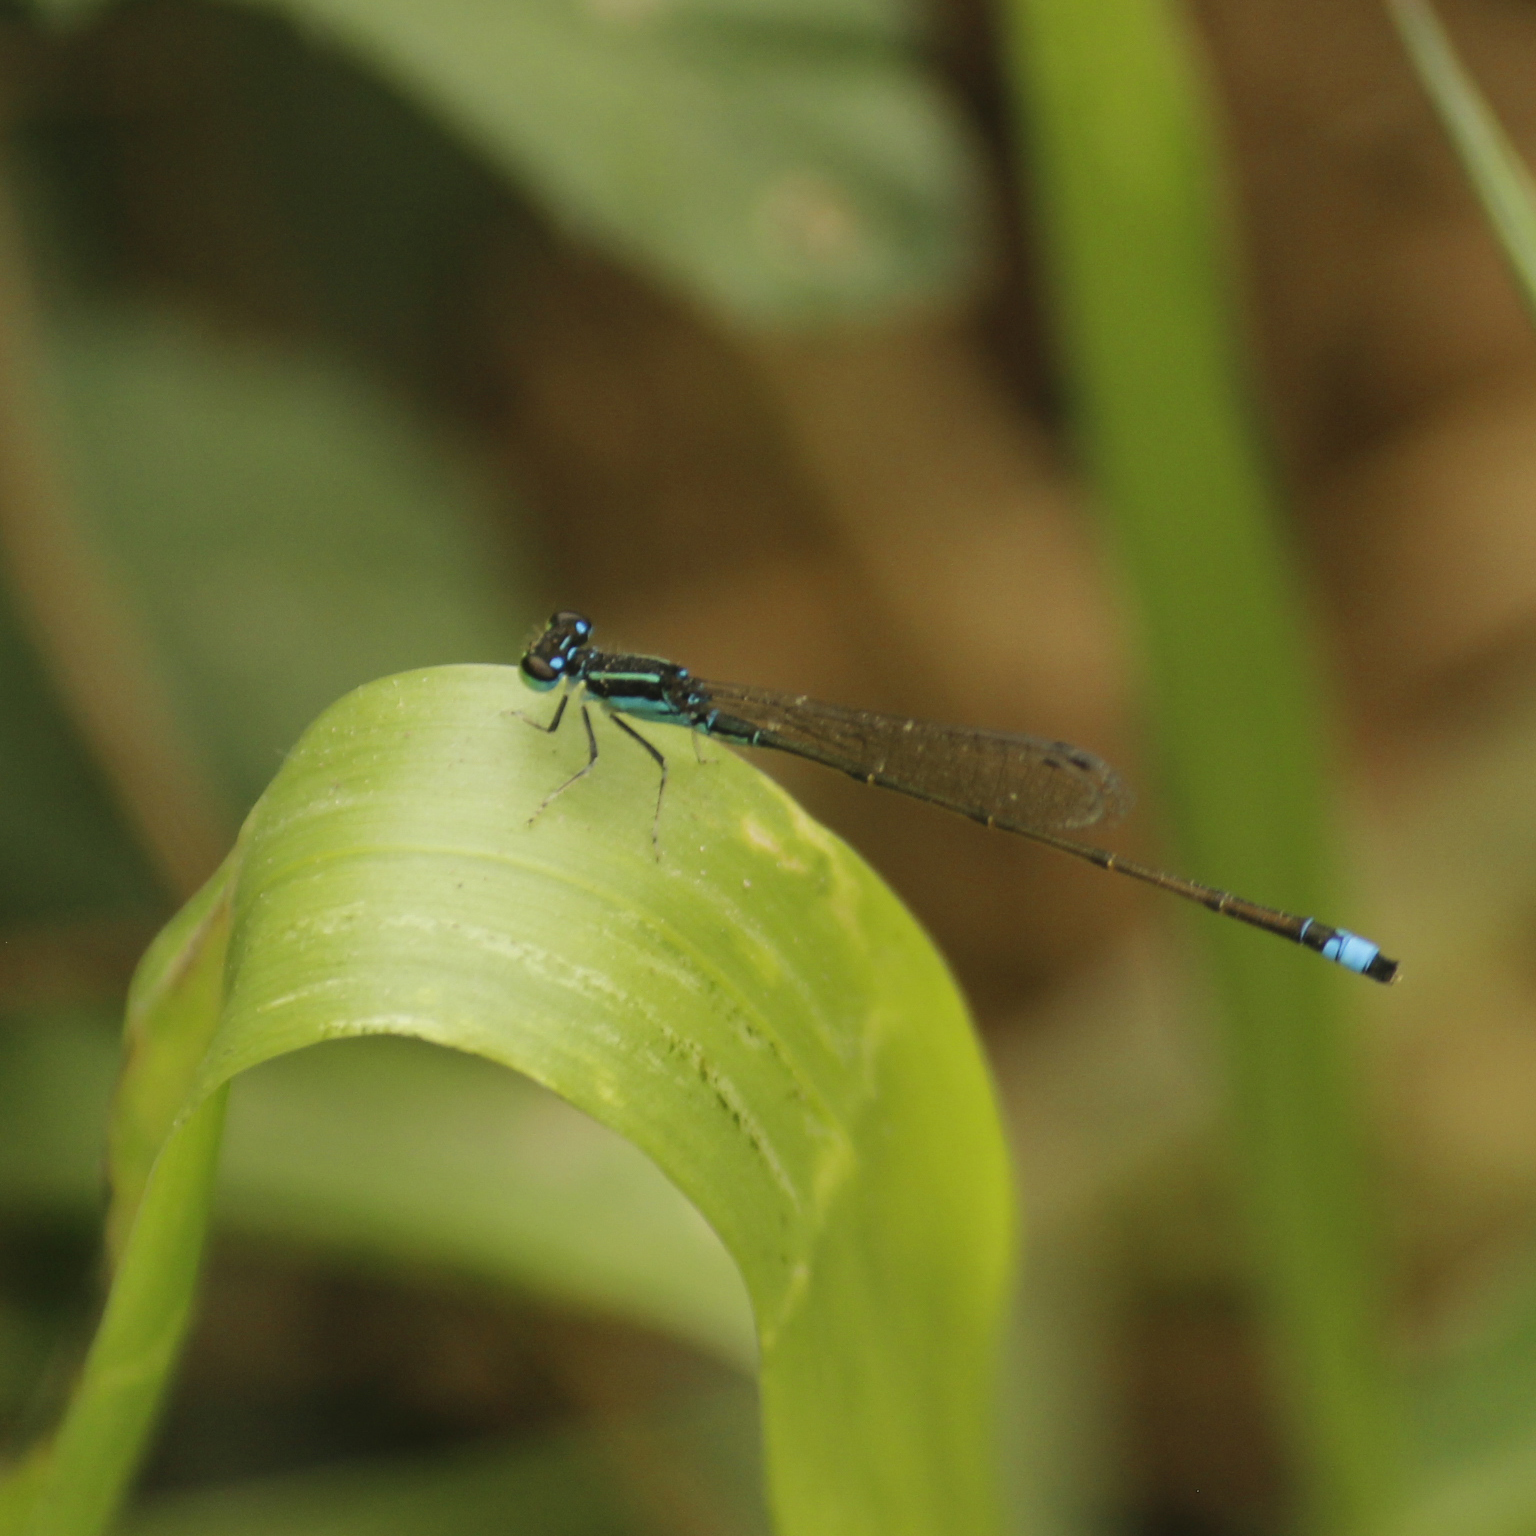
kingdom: Animalia
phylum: Arthropoda
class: Insecta
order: Odonata
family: Coenagrionidae
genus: Ischnura
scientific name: Ischnura capreolus
